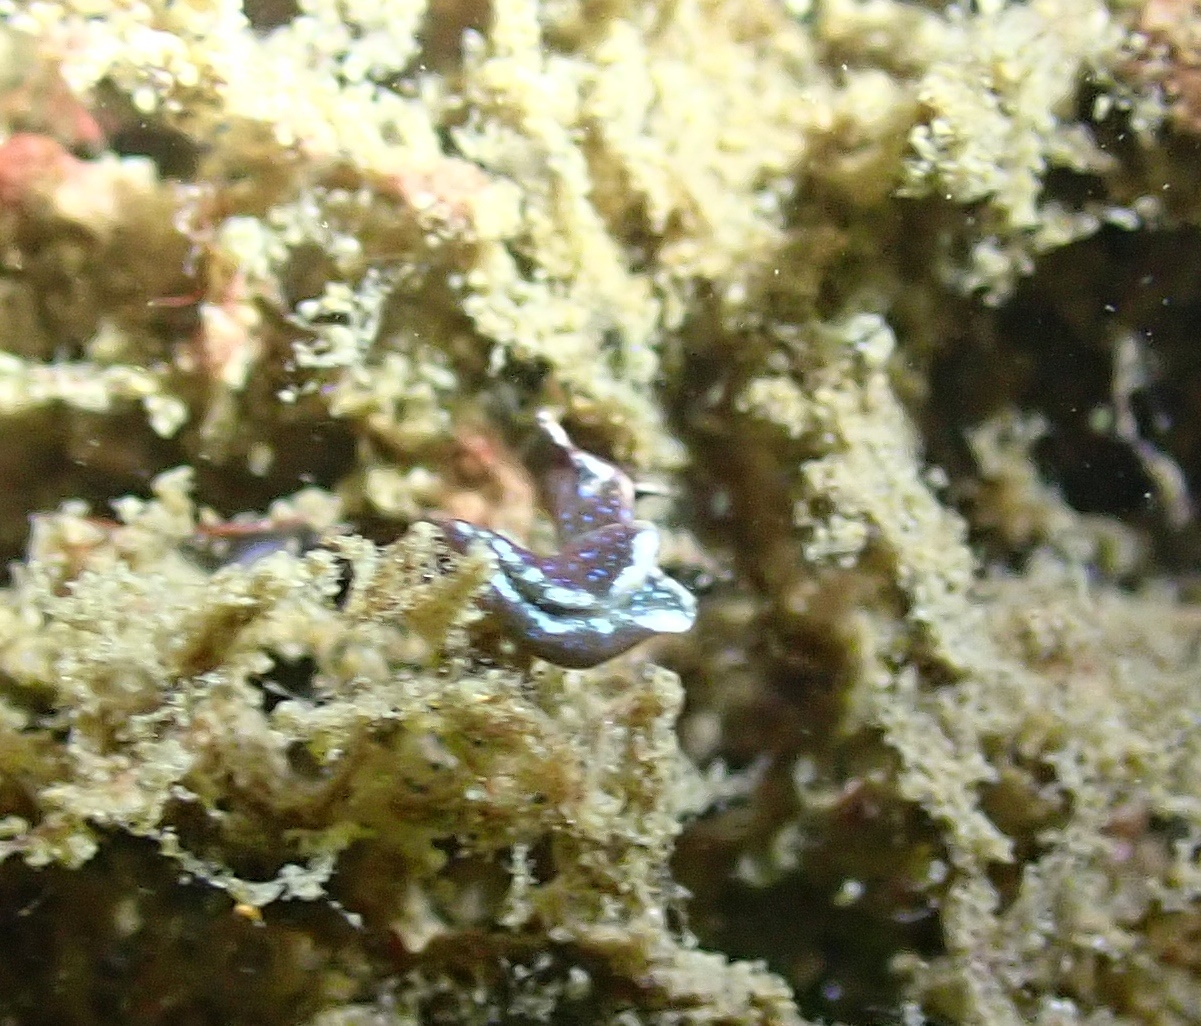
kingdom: Animalia
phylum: Mollusca
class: Gastropoda
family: Plakobranchidae
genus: Elysia
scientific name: Elysia viridis
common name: Green elysia
